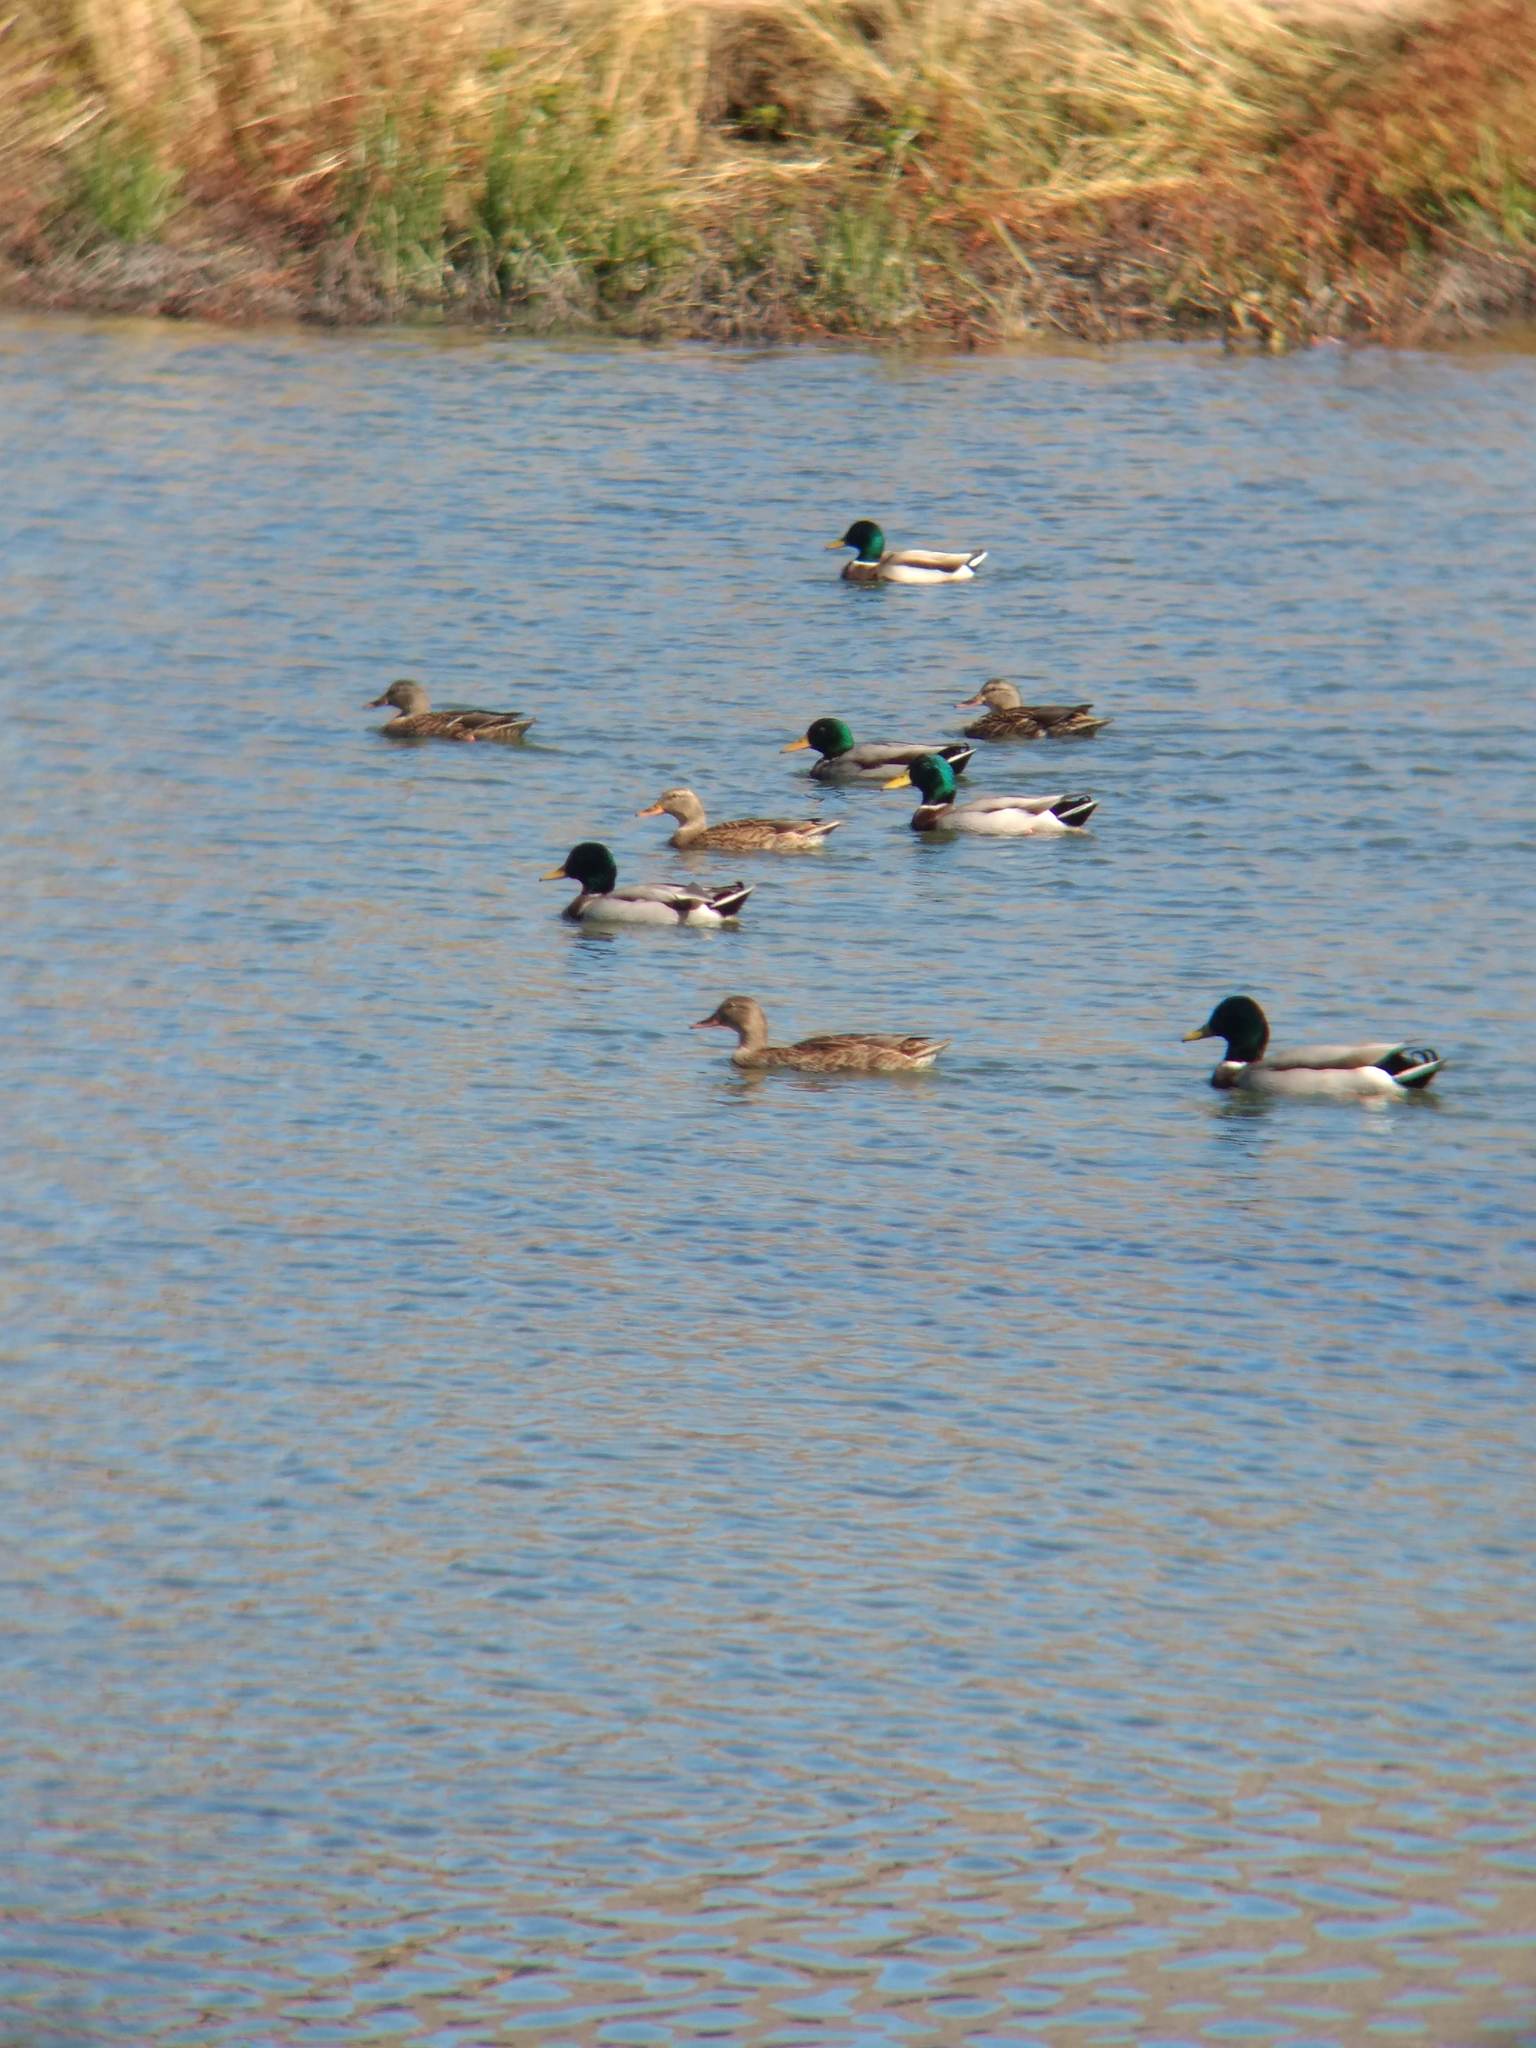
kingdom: Animalia
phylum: Chordata
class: Aves
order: Anseriformes
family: Anatidae
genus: Anas
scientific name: Anas platyrhynchos
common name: Mallard
